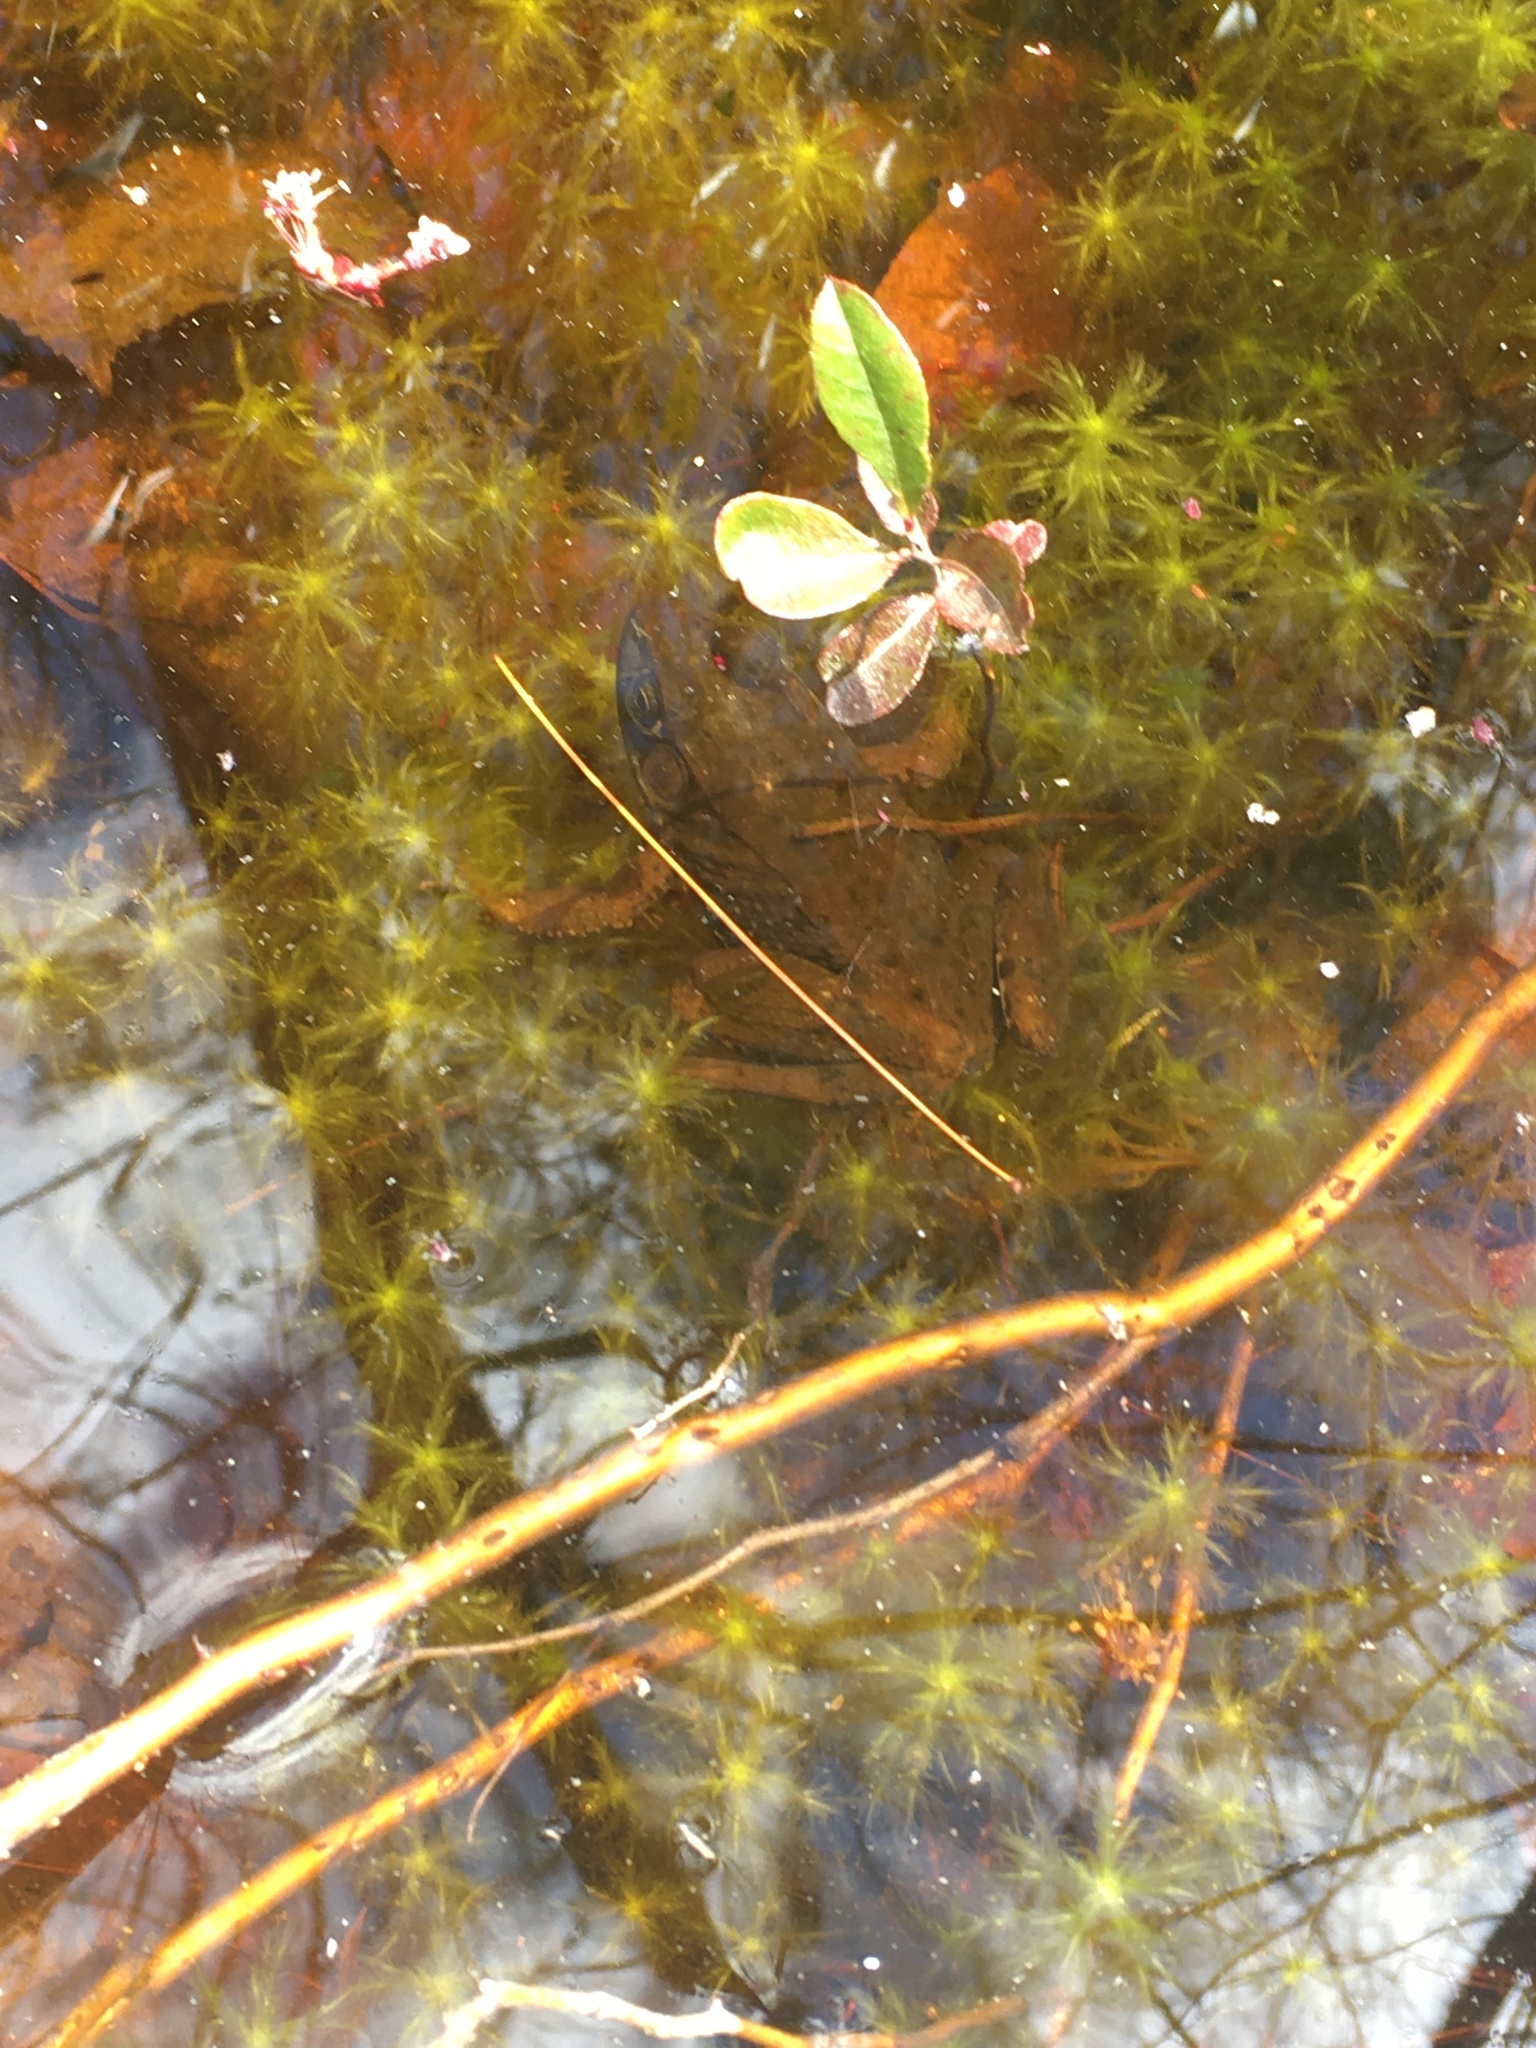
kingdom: Animalia
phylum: Chordata
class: Amphibia
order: Anura
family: Ranidae
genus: Lithobates
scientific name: Lithobates clamitans
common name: Green frog
